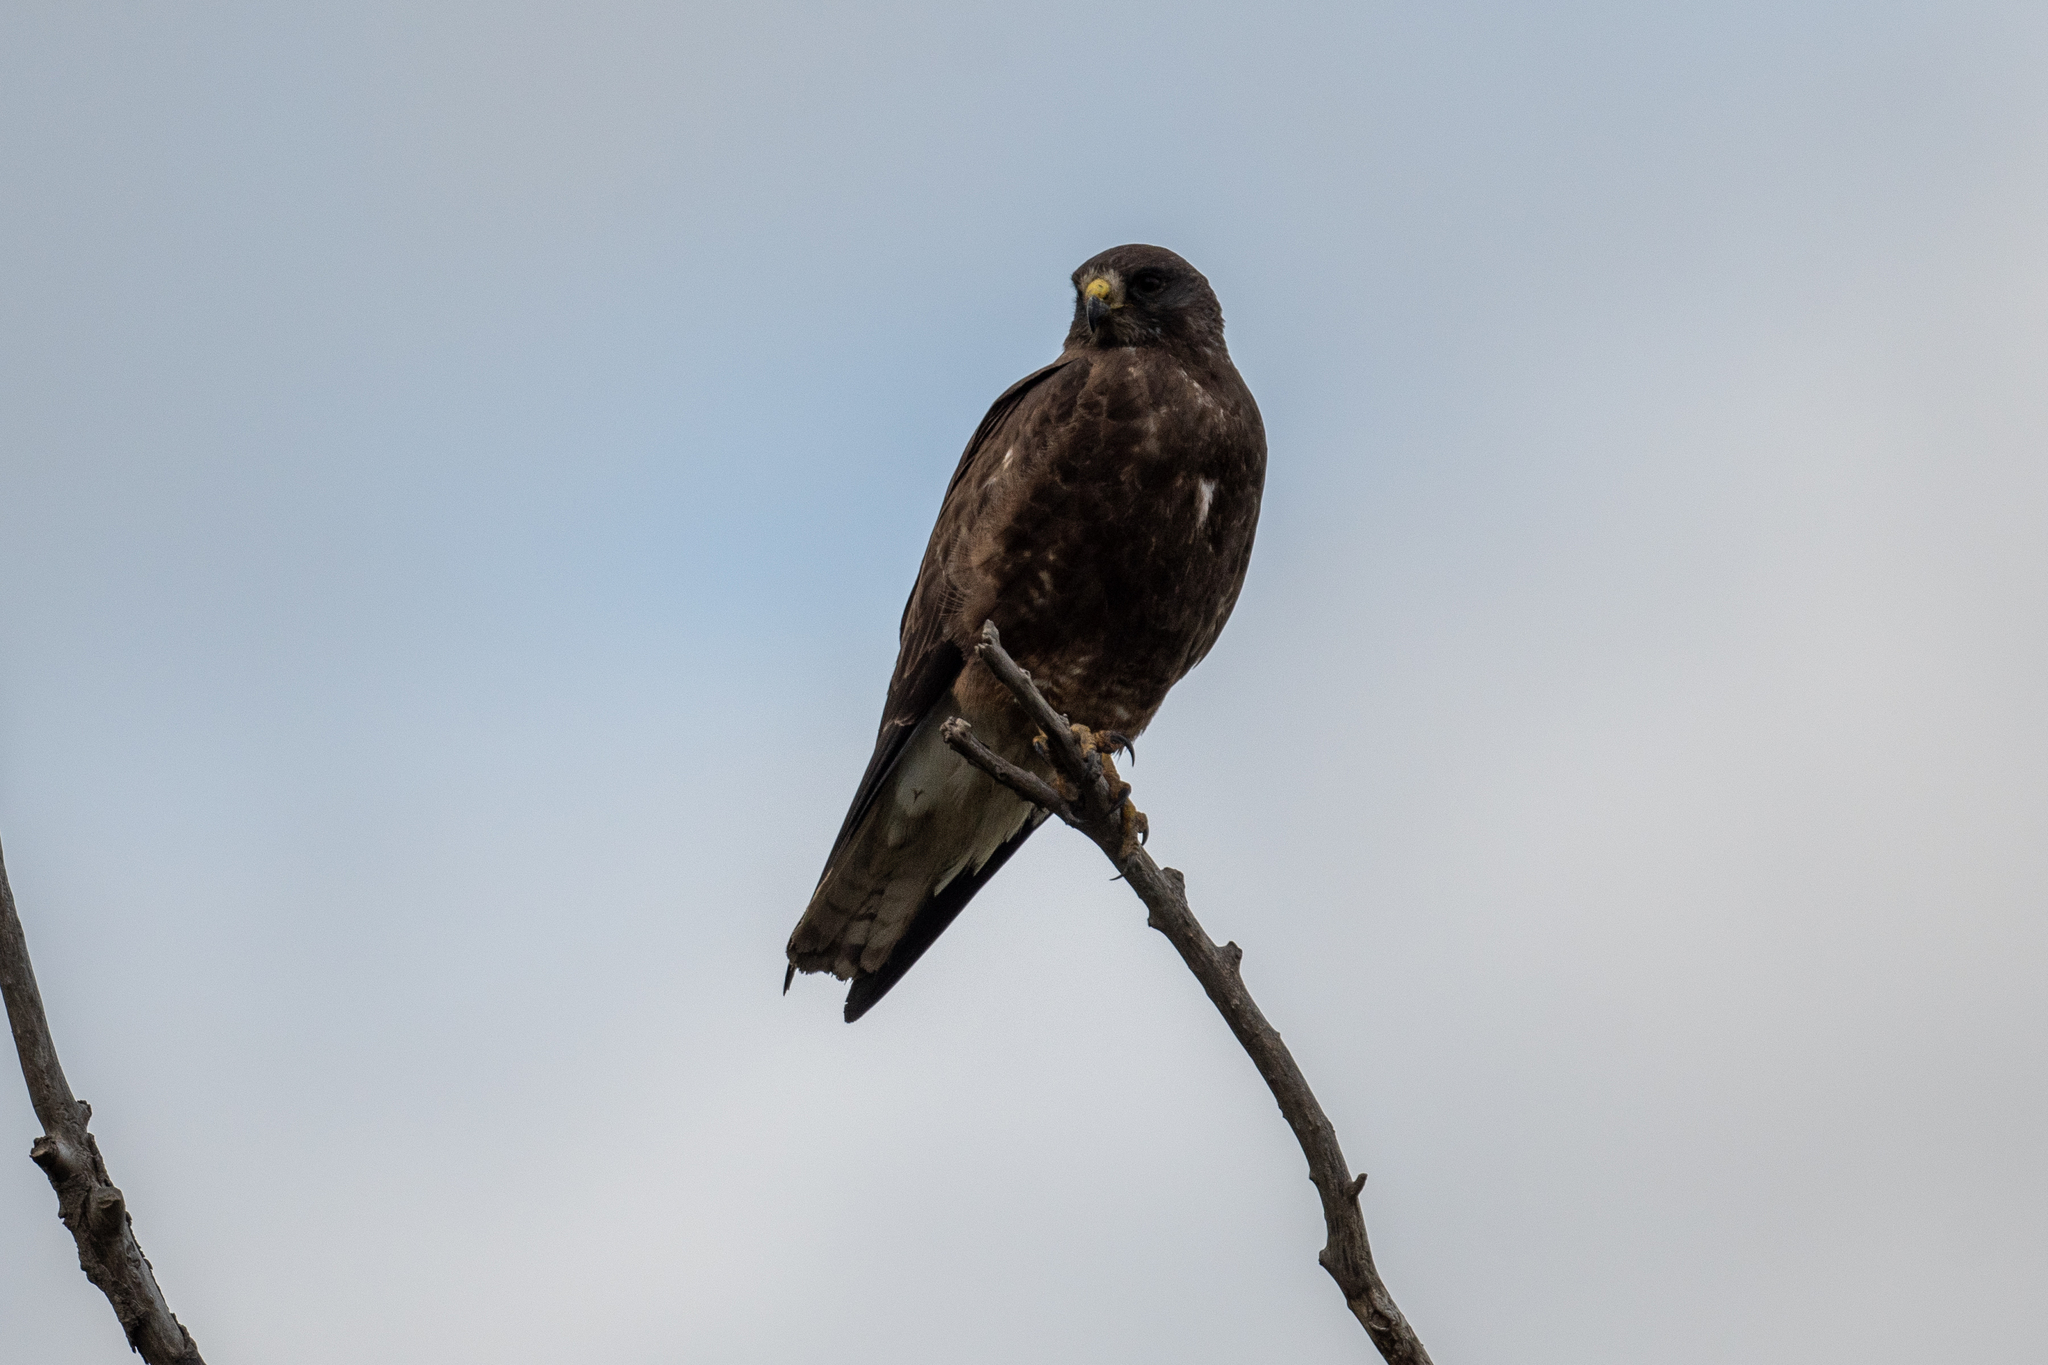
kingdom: Animalia
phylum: Chordata
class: Aves
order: Accipitriformes
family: Accipitridae
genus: Buteo
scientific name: Buteo swainsoni
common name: Swainson's hawk
